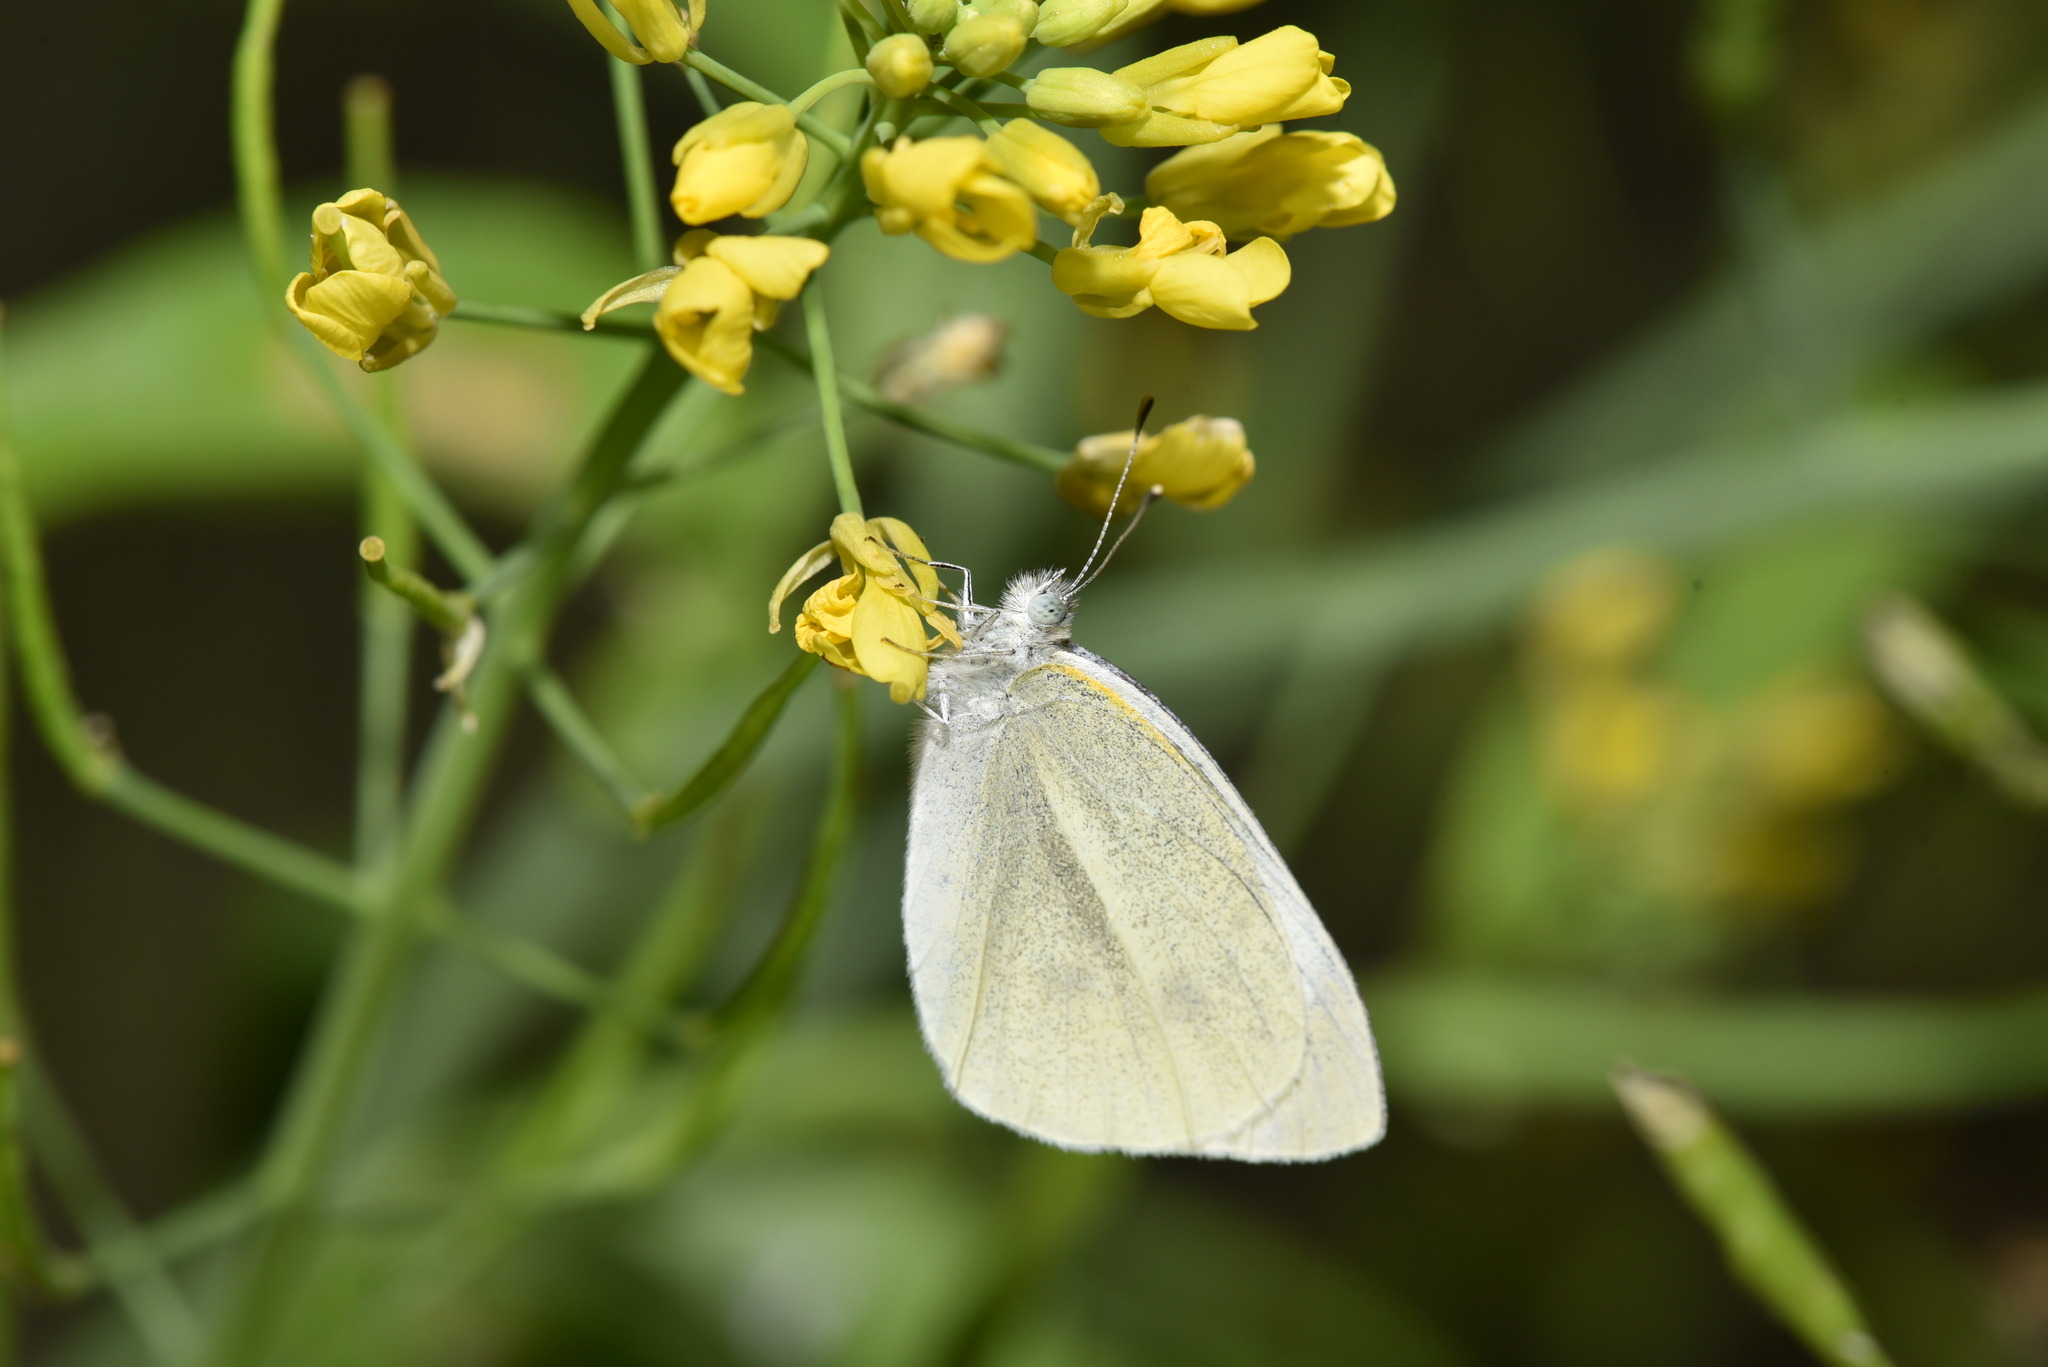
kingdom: Animalia
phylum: Arthropoda
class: Insecta
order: Lepidoptera
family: Pieridae
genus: Pieris
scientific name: Pieris rapae
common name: Small white
